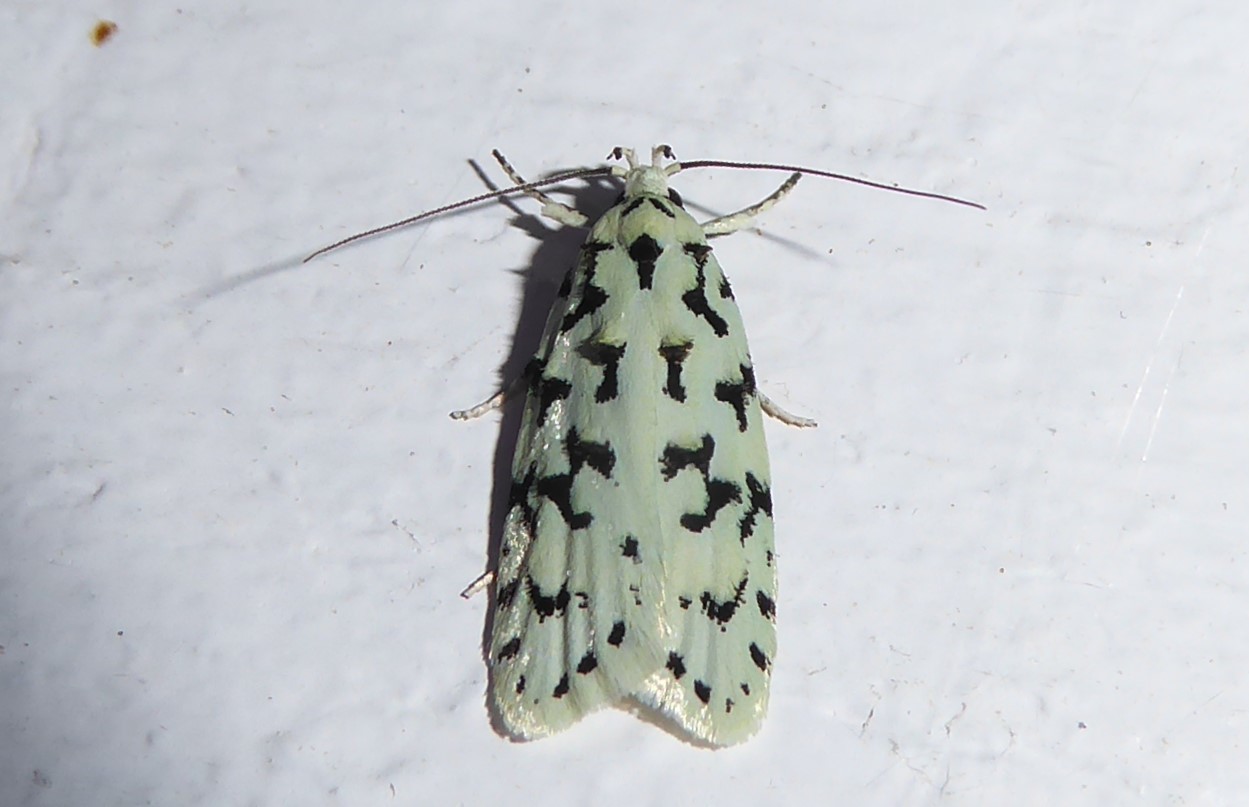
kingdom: Animalia
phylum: Arthropoda
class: Insecta
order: Lepidoptera
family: Oecophoridae
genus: Izatha
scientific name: Izatha huttoni
